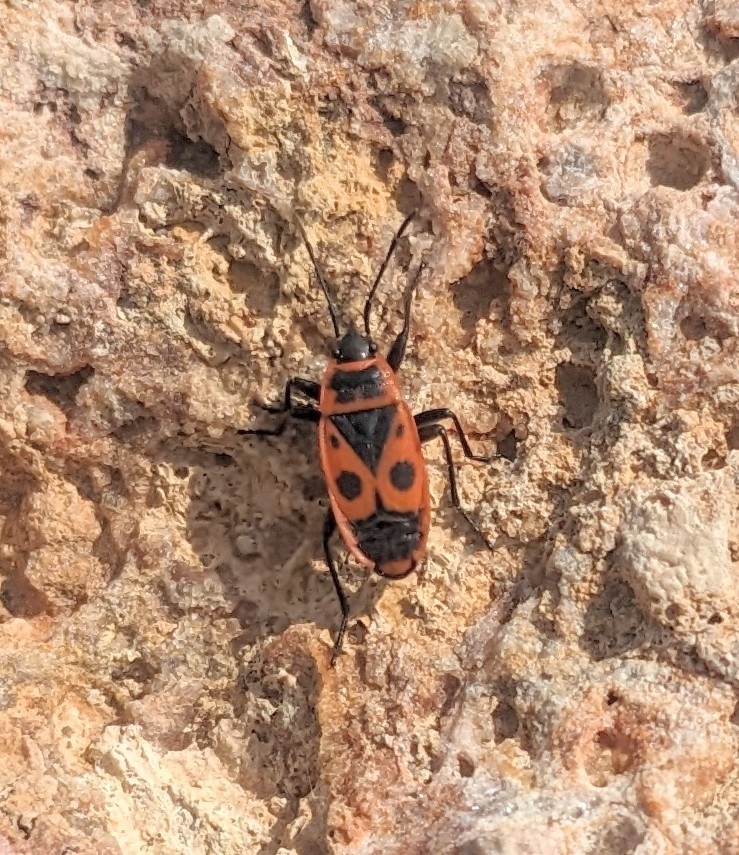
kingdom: Animalia
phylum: Arthropoda
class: Insecta
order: Hemiptera
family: Pyrrhocoridae
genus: Pyrrhocoris
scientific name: Pyrrhocoris apterus
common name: Firebug
